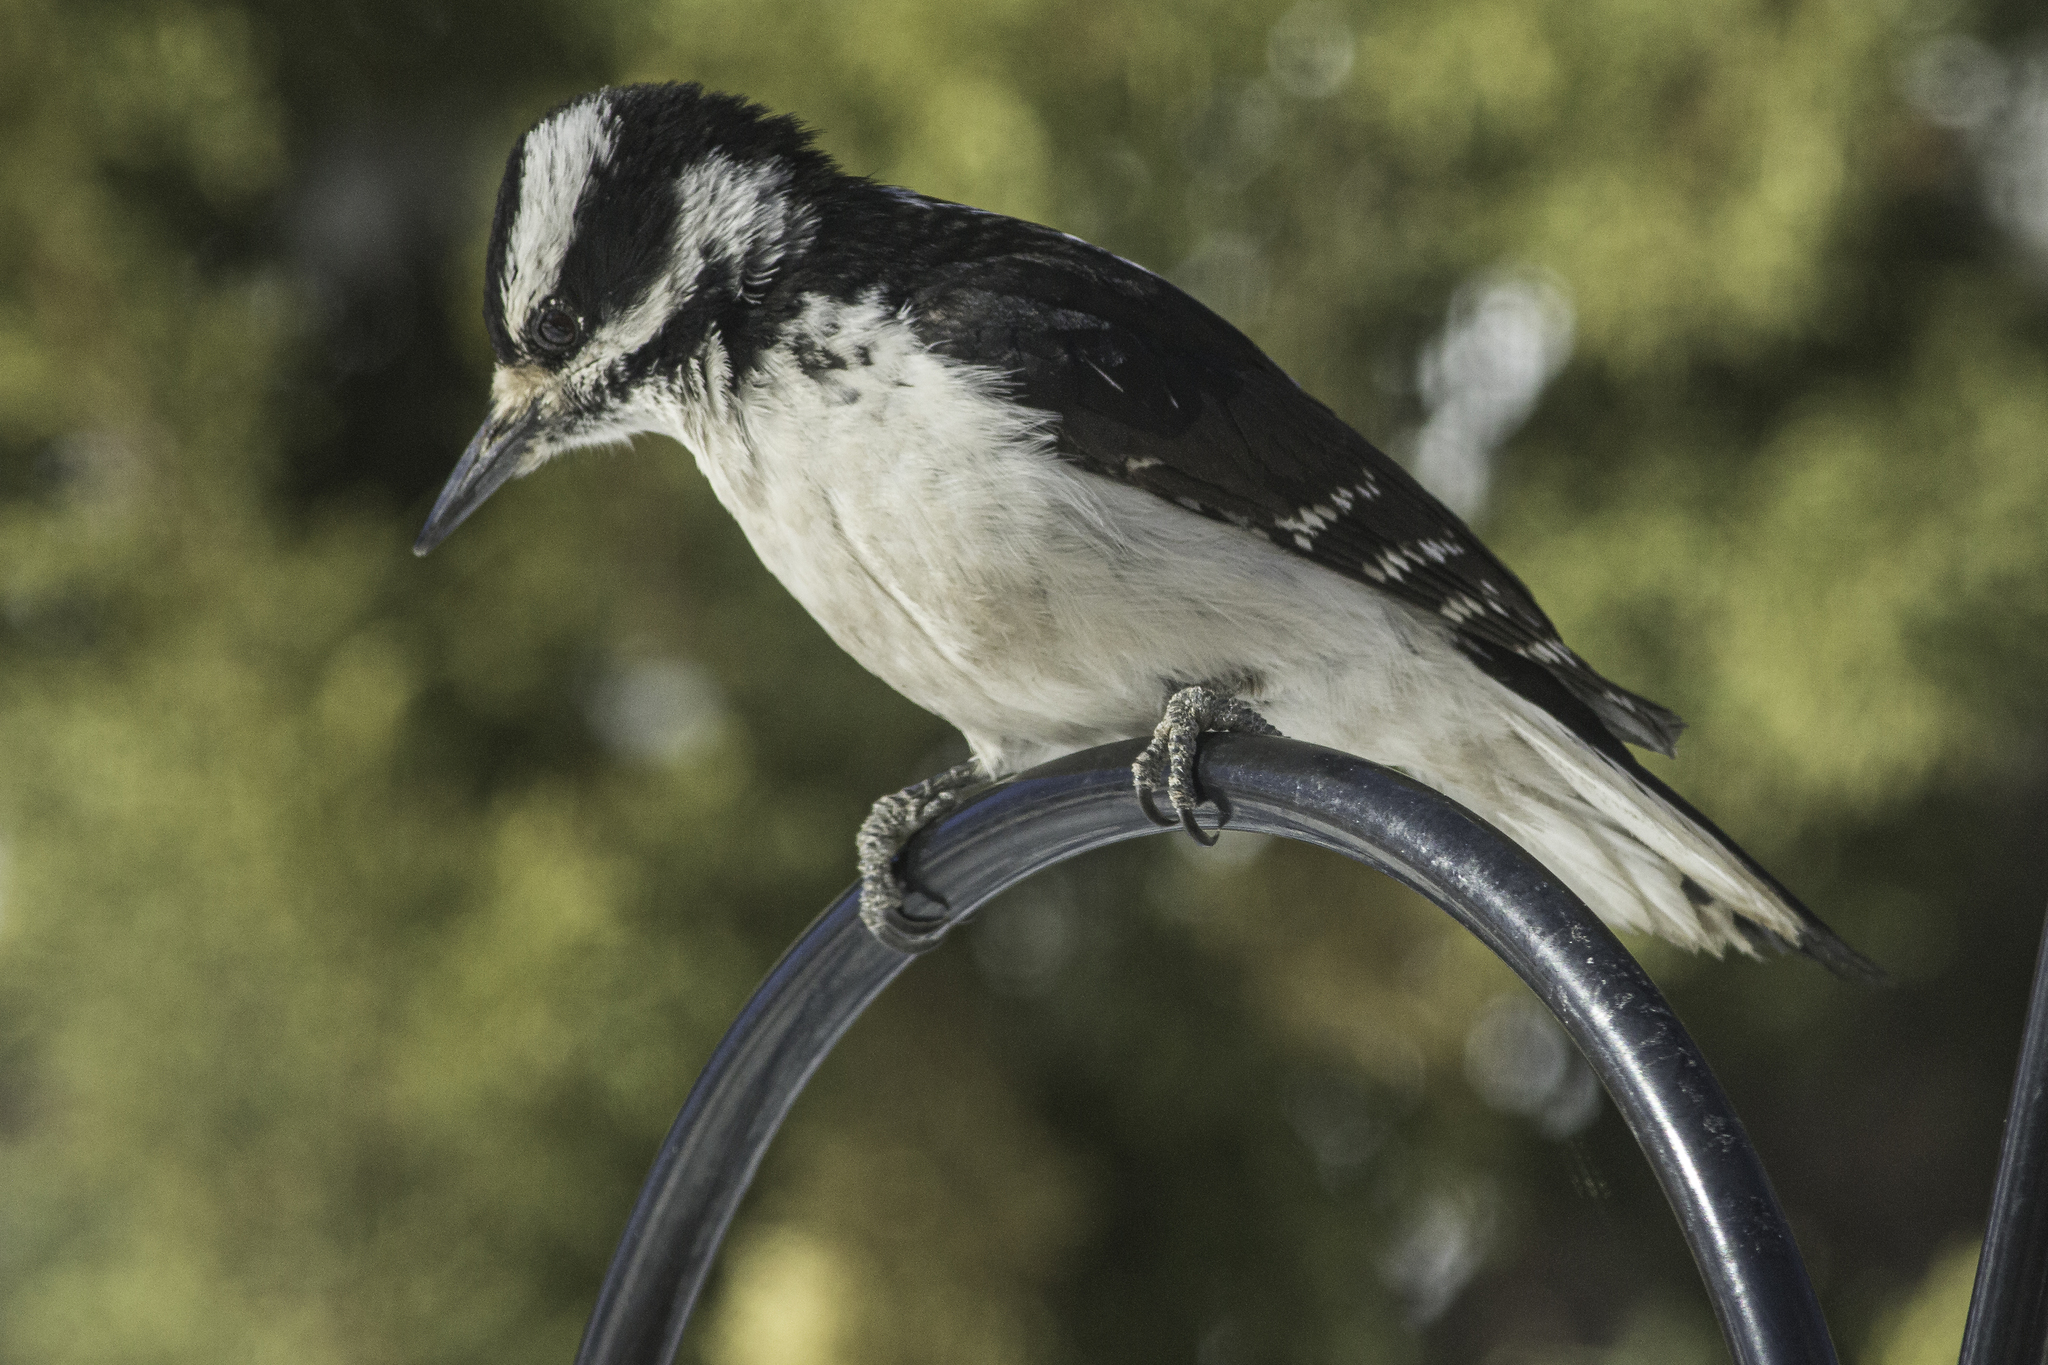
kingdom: Animalia
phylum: Chordata
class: Aves
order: Piciformes
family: Picidae
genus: Leuconotopicus
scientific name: Leuconotopicus villosus
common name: Hairy woodpecker
